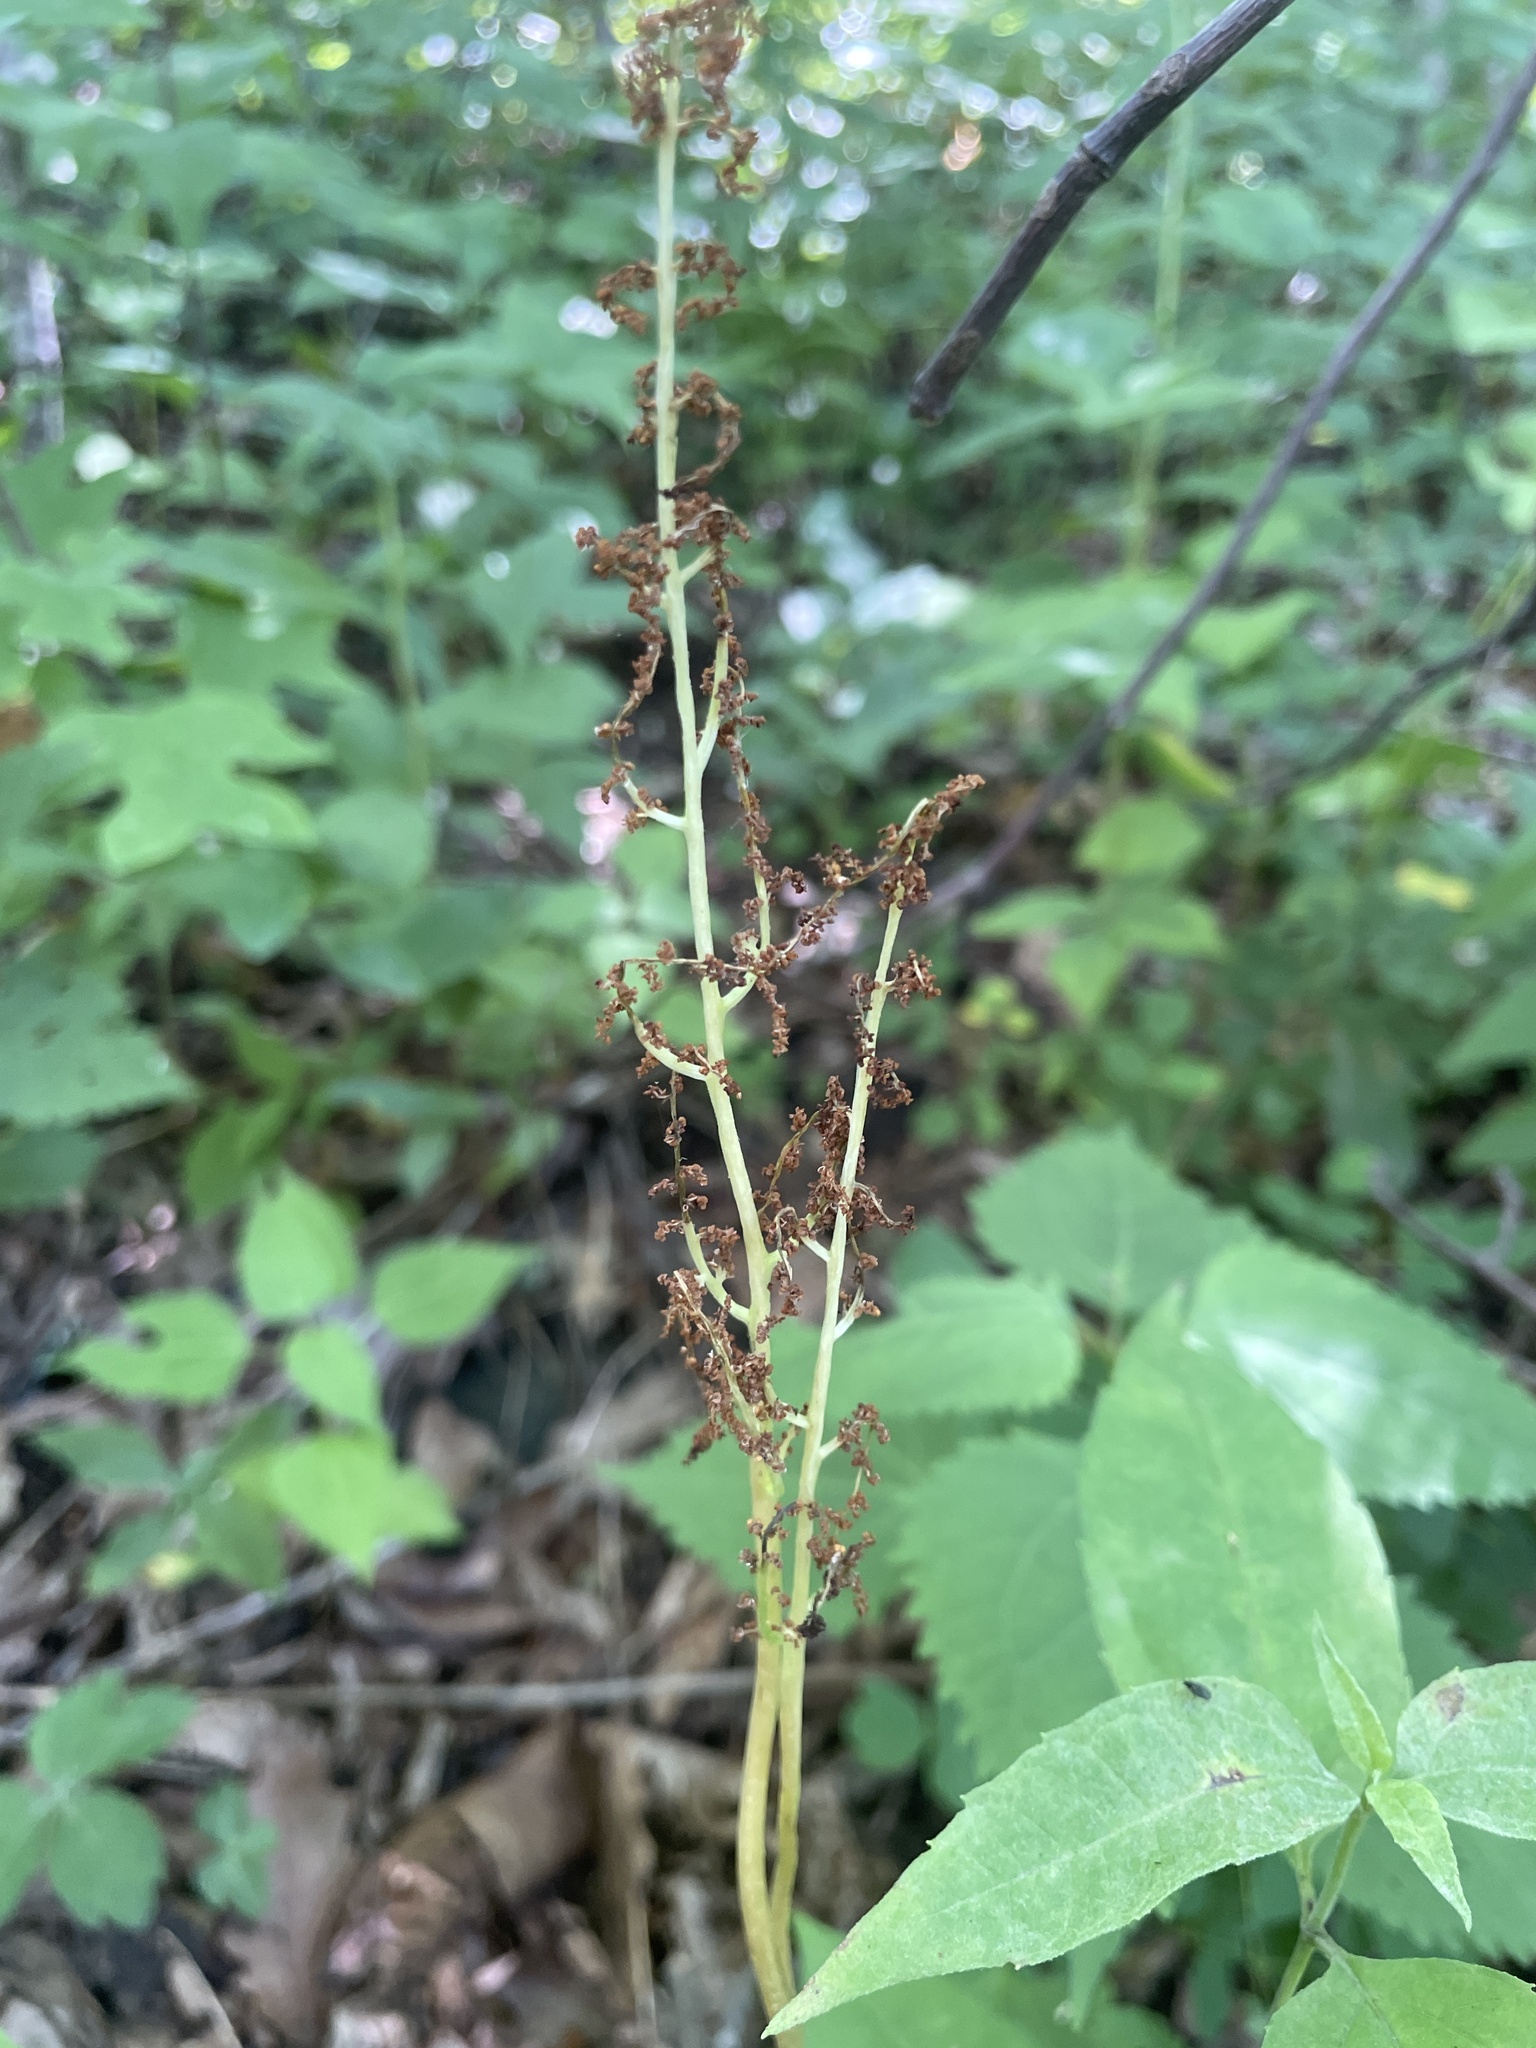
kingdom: Plantae
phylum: Tracheophyta
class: Polypodiopsida
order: Ophioglossales
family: Ophioglossaceae
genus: Botrypus
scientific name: Botrypus virginianus
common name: Common grapefern
